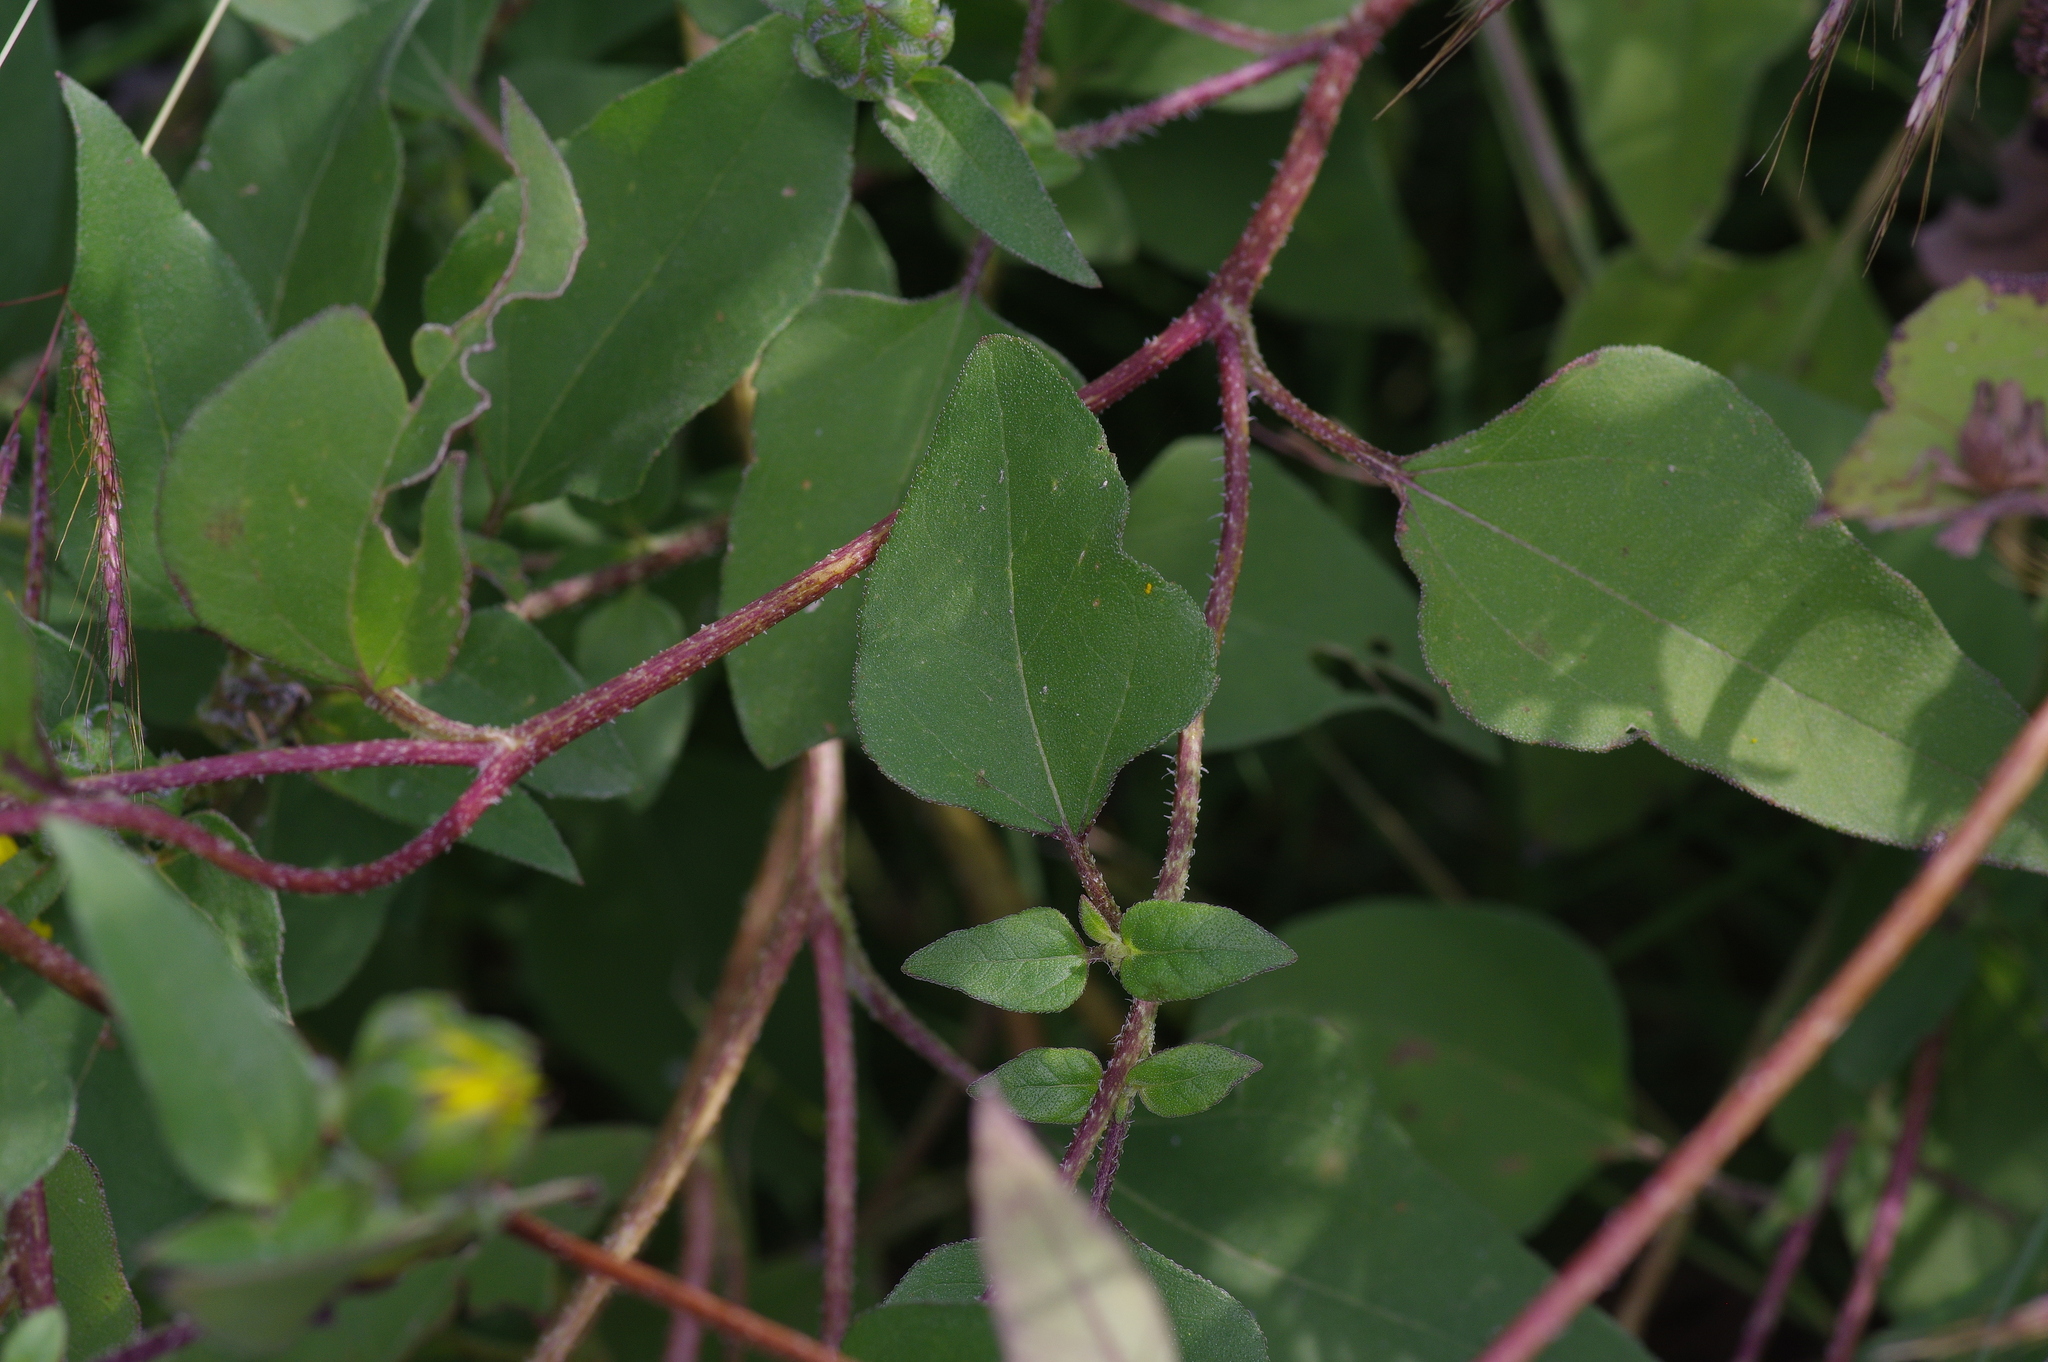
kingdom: Plantae
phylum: Tracheophyta
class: Magnoliopsida
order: Asterales
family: Asteraceae
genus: Helianthus
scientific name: Helianthus annuus
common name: Sunflower
